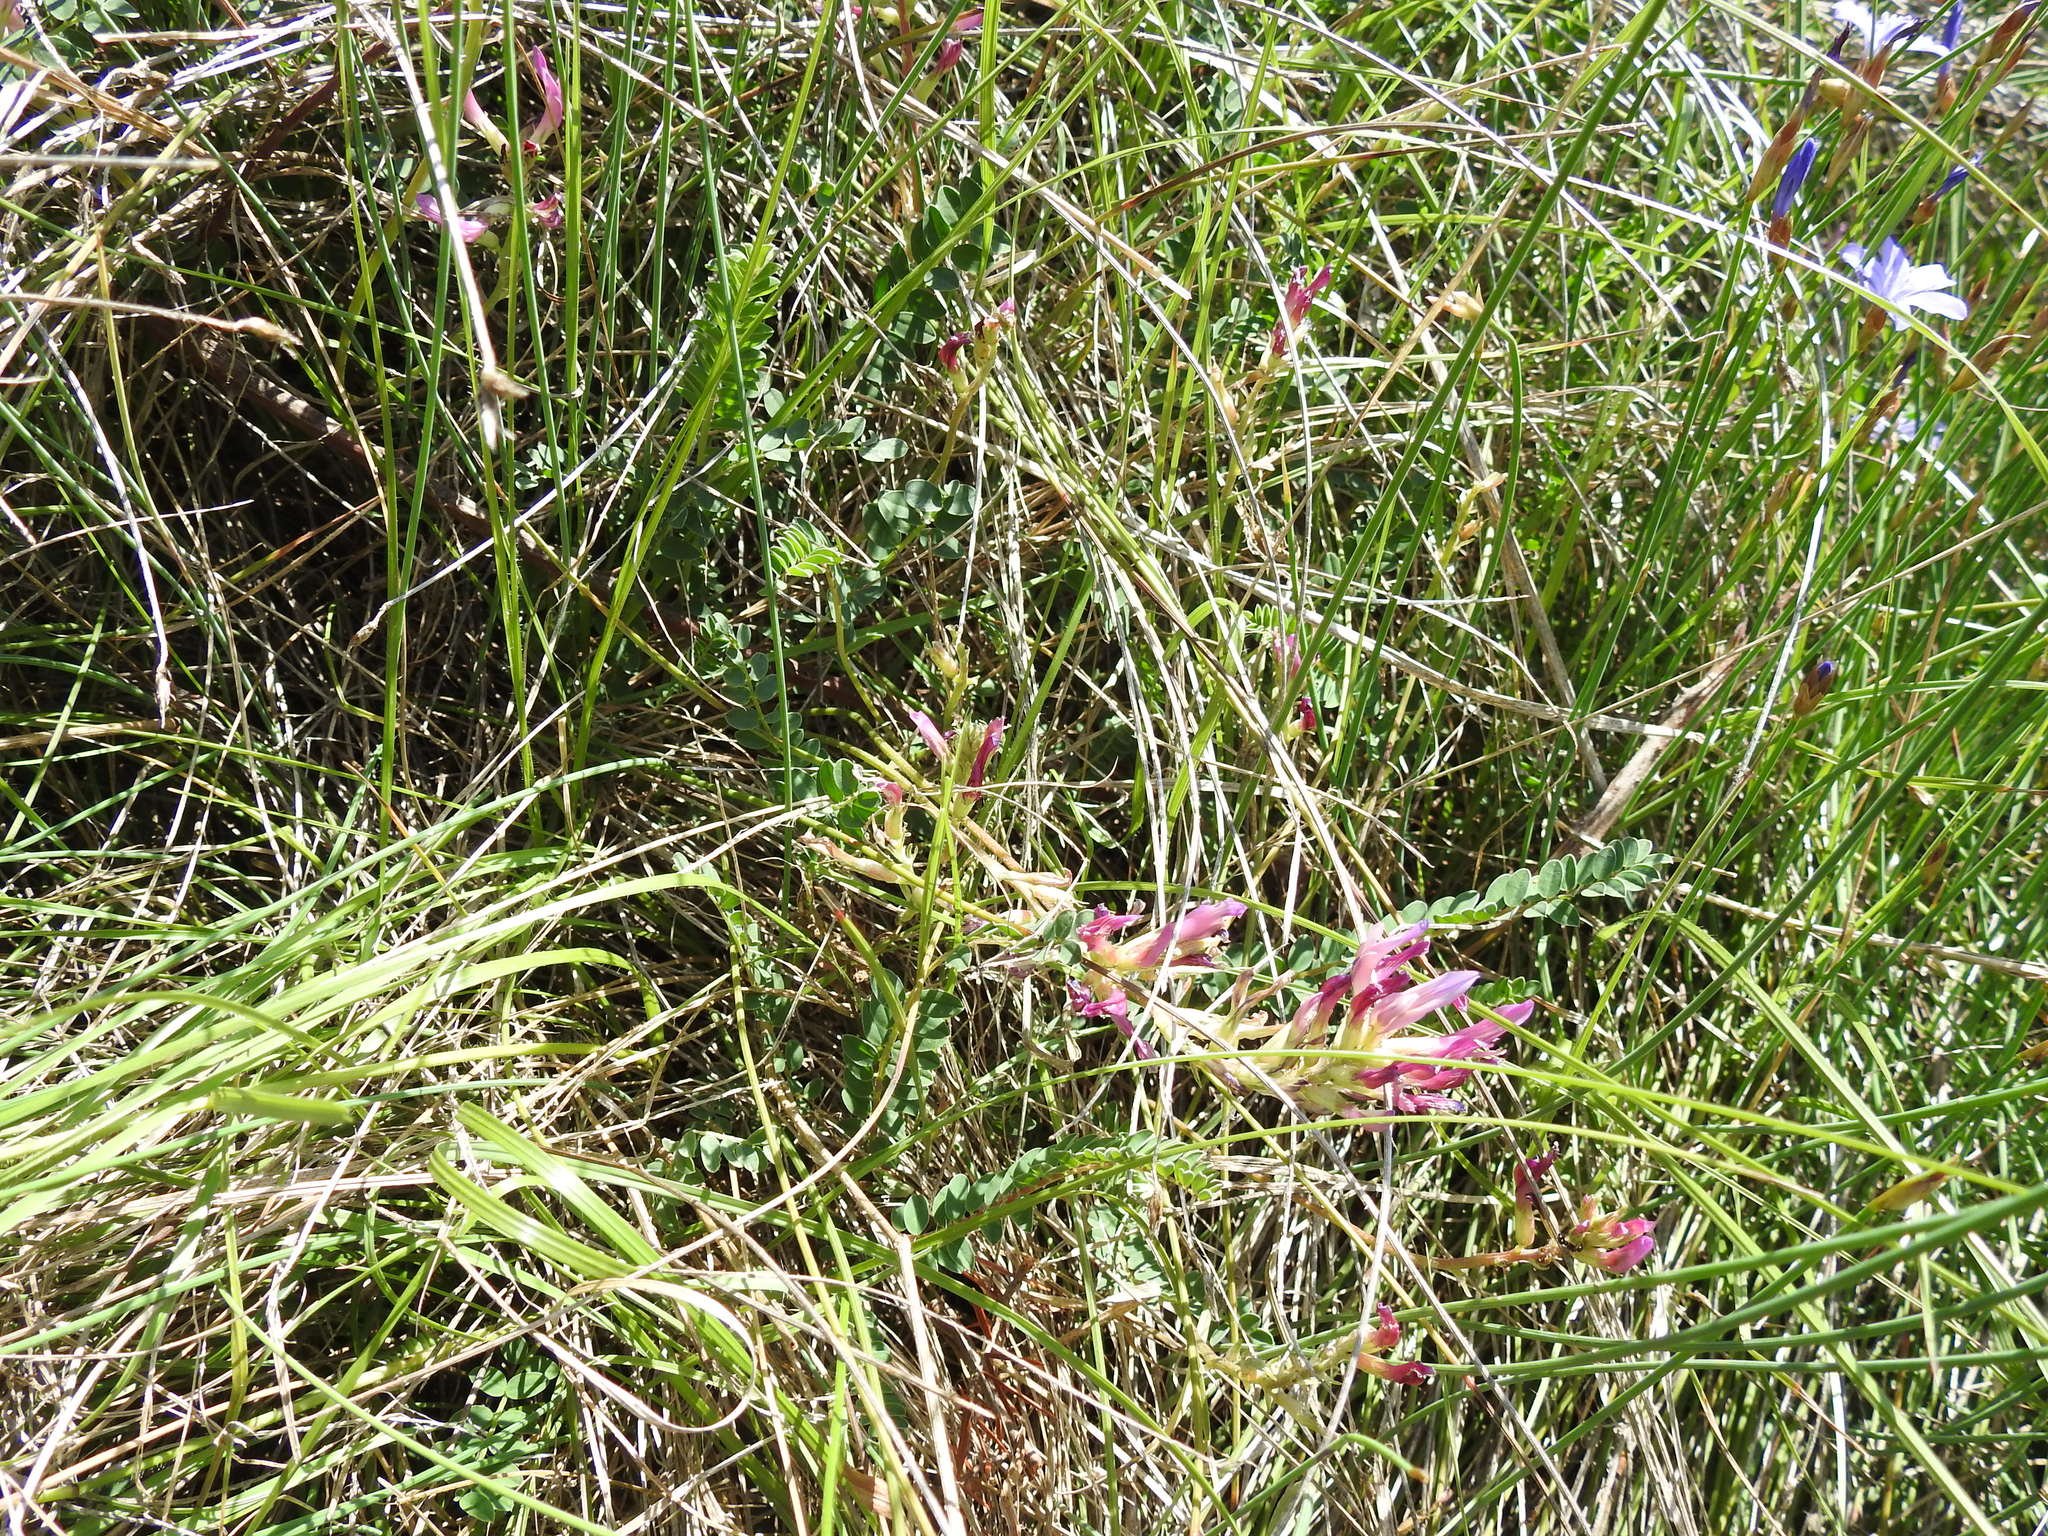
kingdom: Plantae
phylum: Tracheophyta
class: Magnoliopsida
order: Fabales
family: Fabaceae
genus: Astragalus
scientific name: Astragalus monspessulanus
